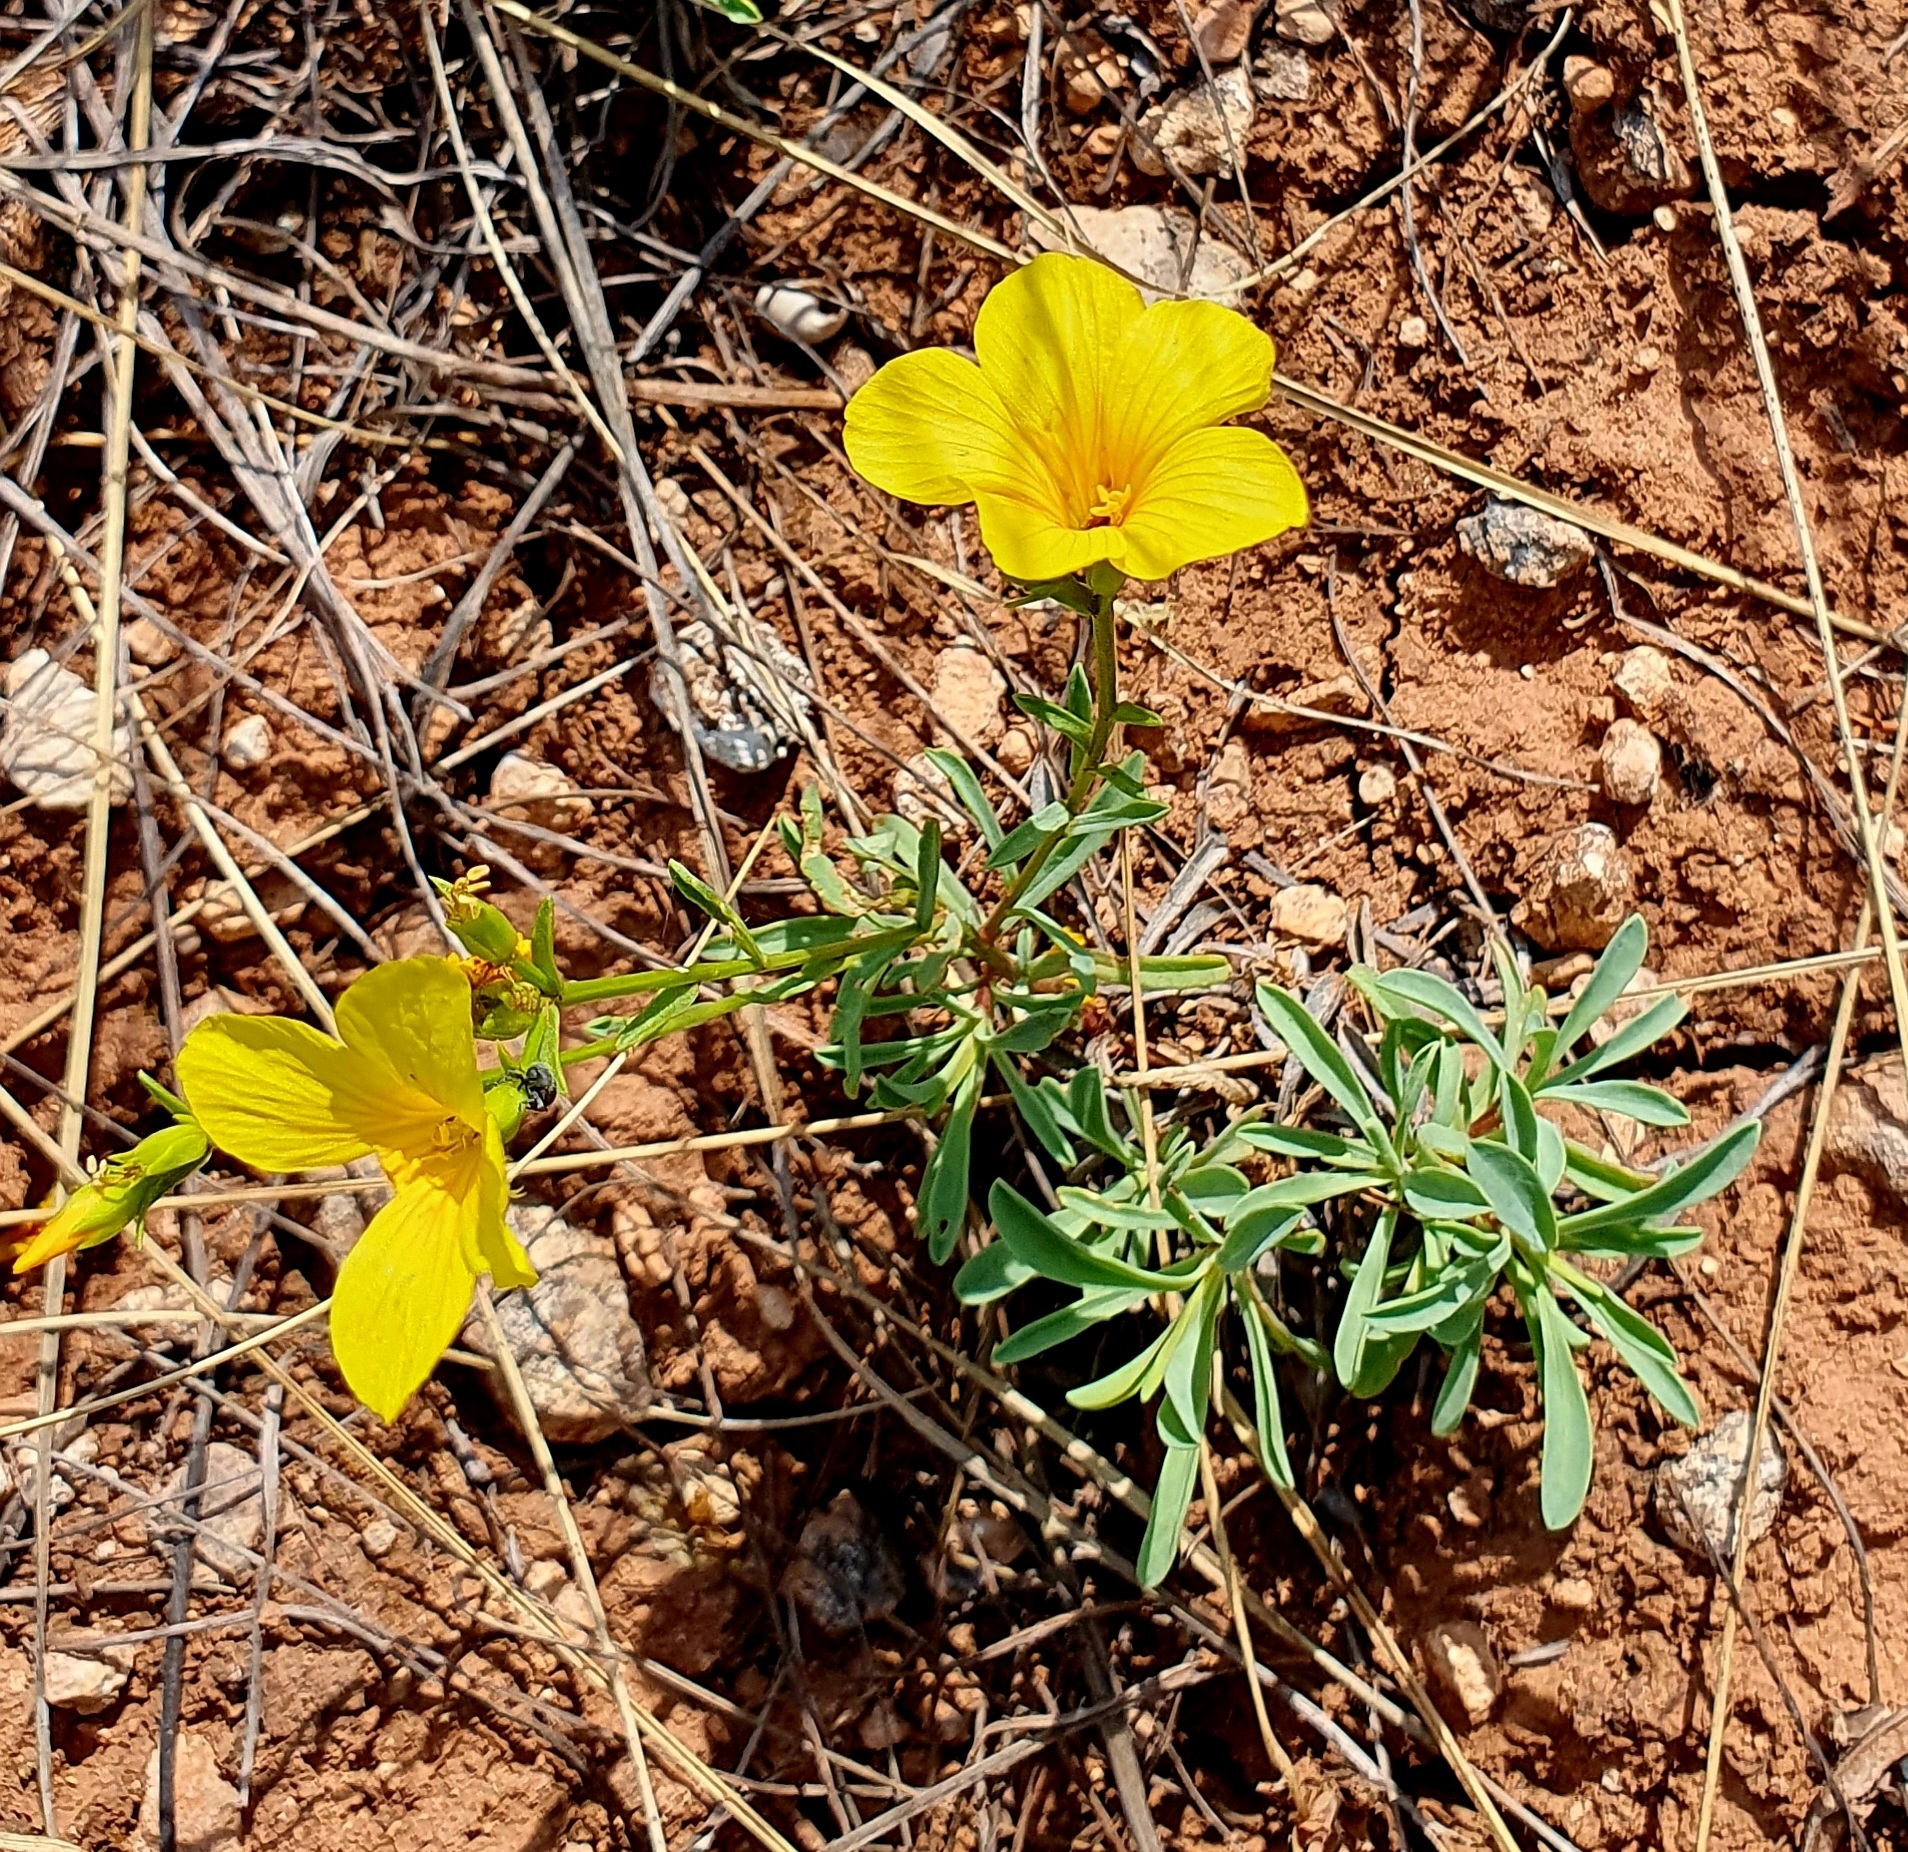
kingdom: Plantae
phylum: Tracheophyta
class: Magnoliopsida
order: Malpighiales
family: Linaceae
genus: Linum
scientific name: Linum ucranicum
